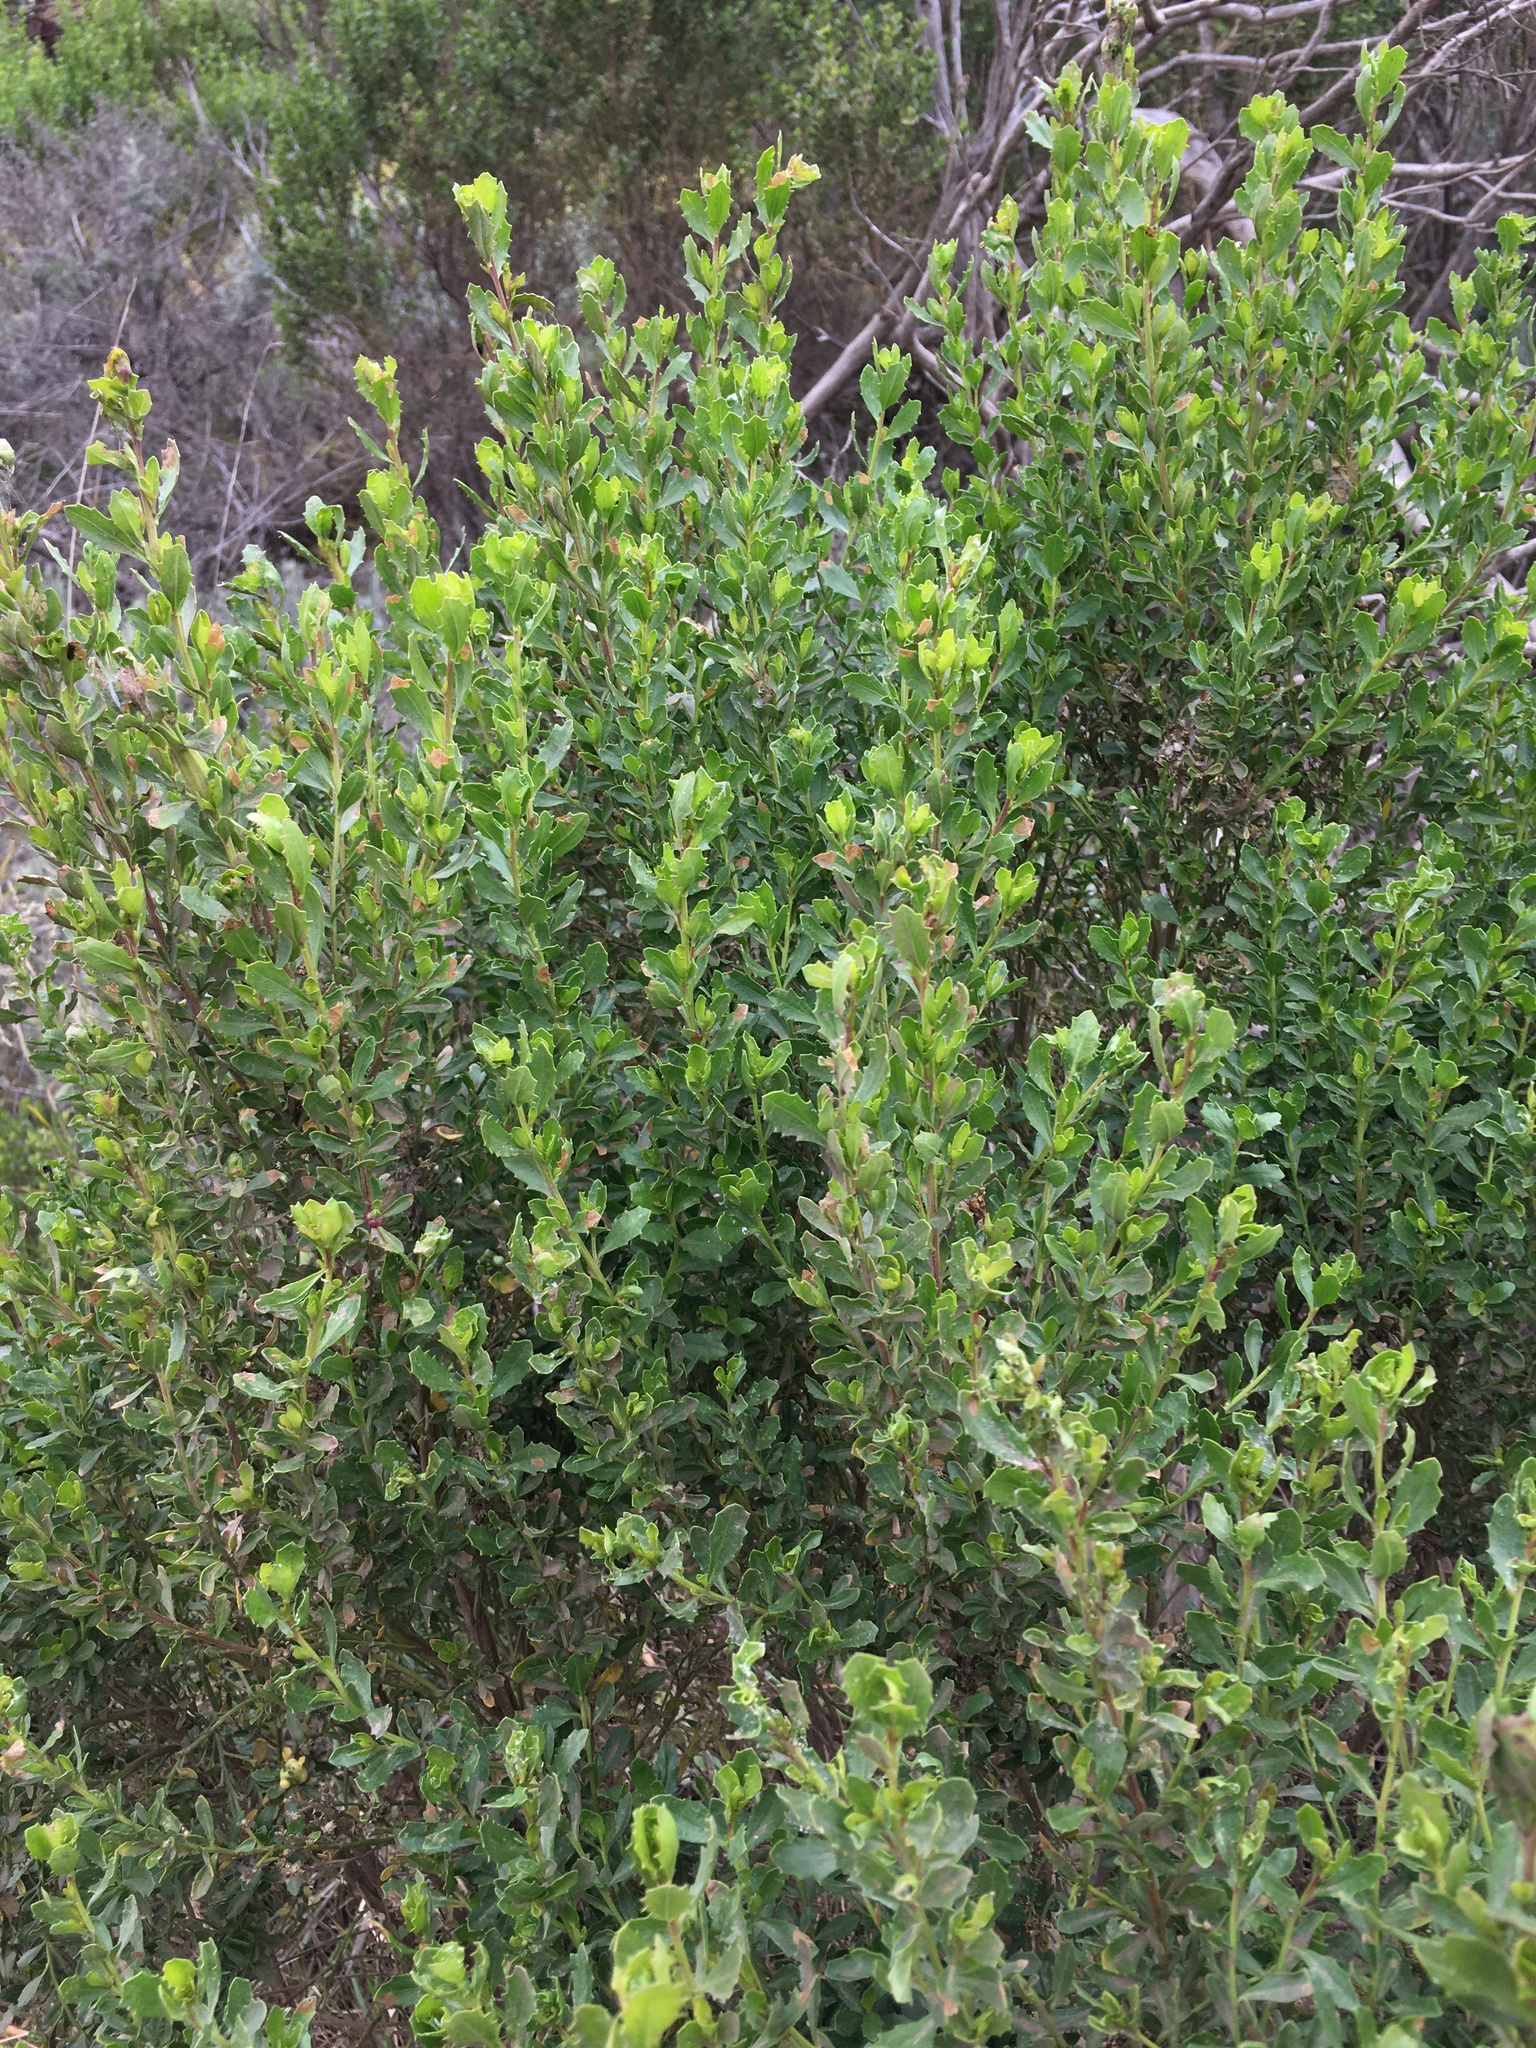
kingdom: Plantae
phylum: Tracheophyta
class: Magnoliopsida
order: Asterales
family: Asteraceae
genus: Baccharis
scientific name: Baccharis pilularis
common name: Coyotebrush
